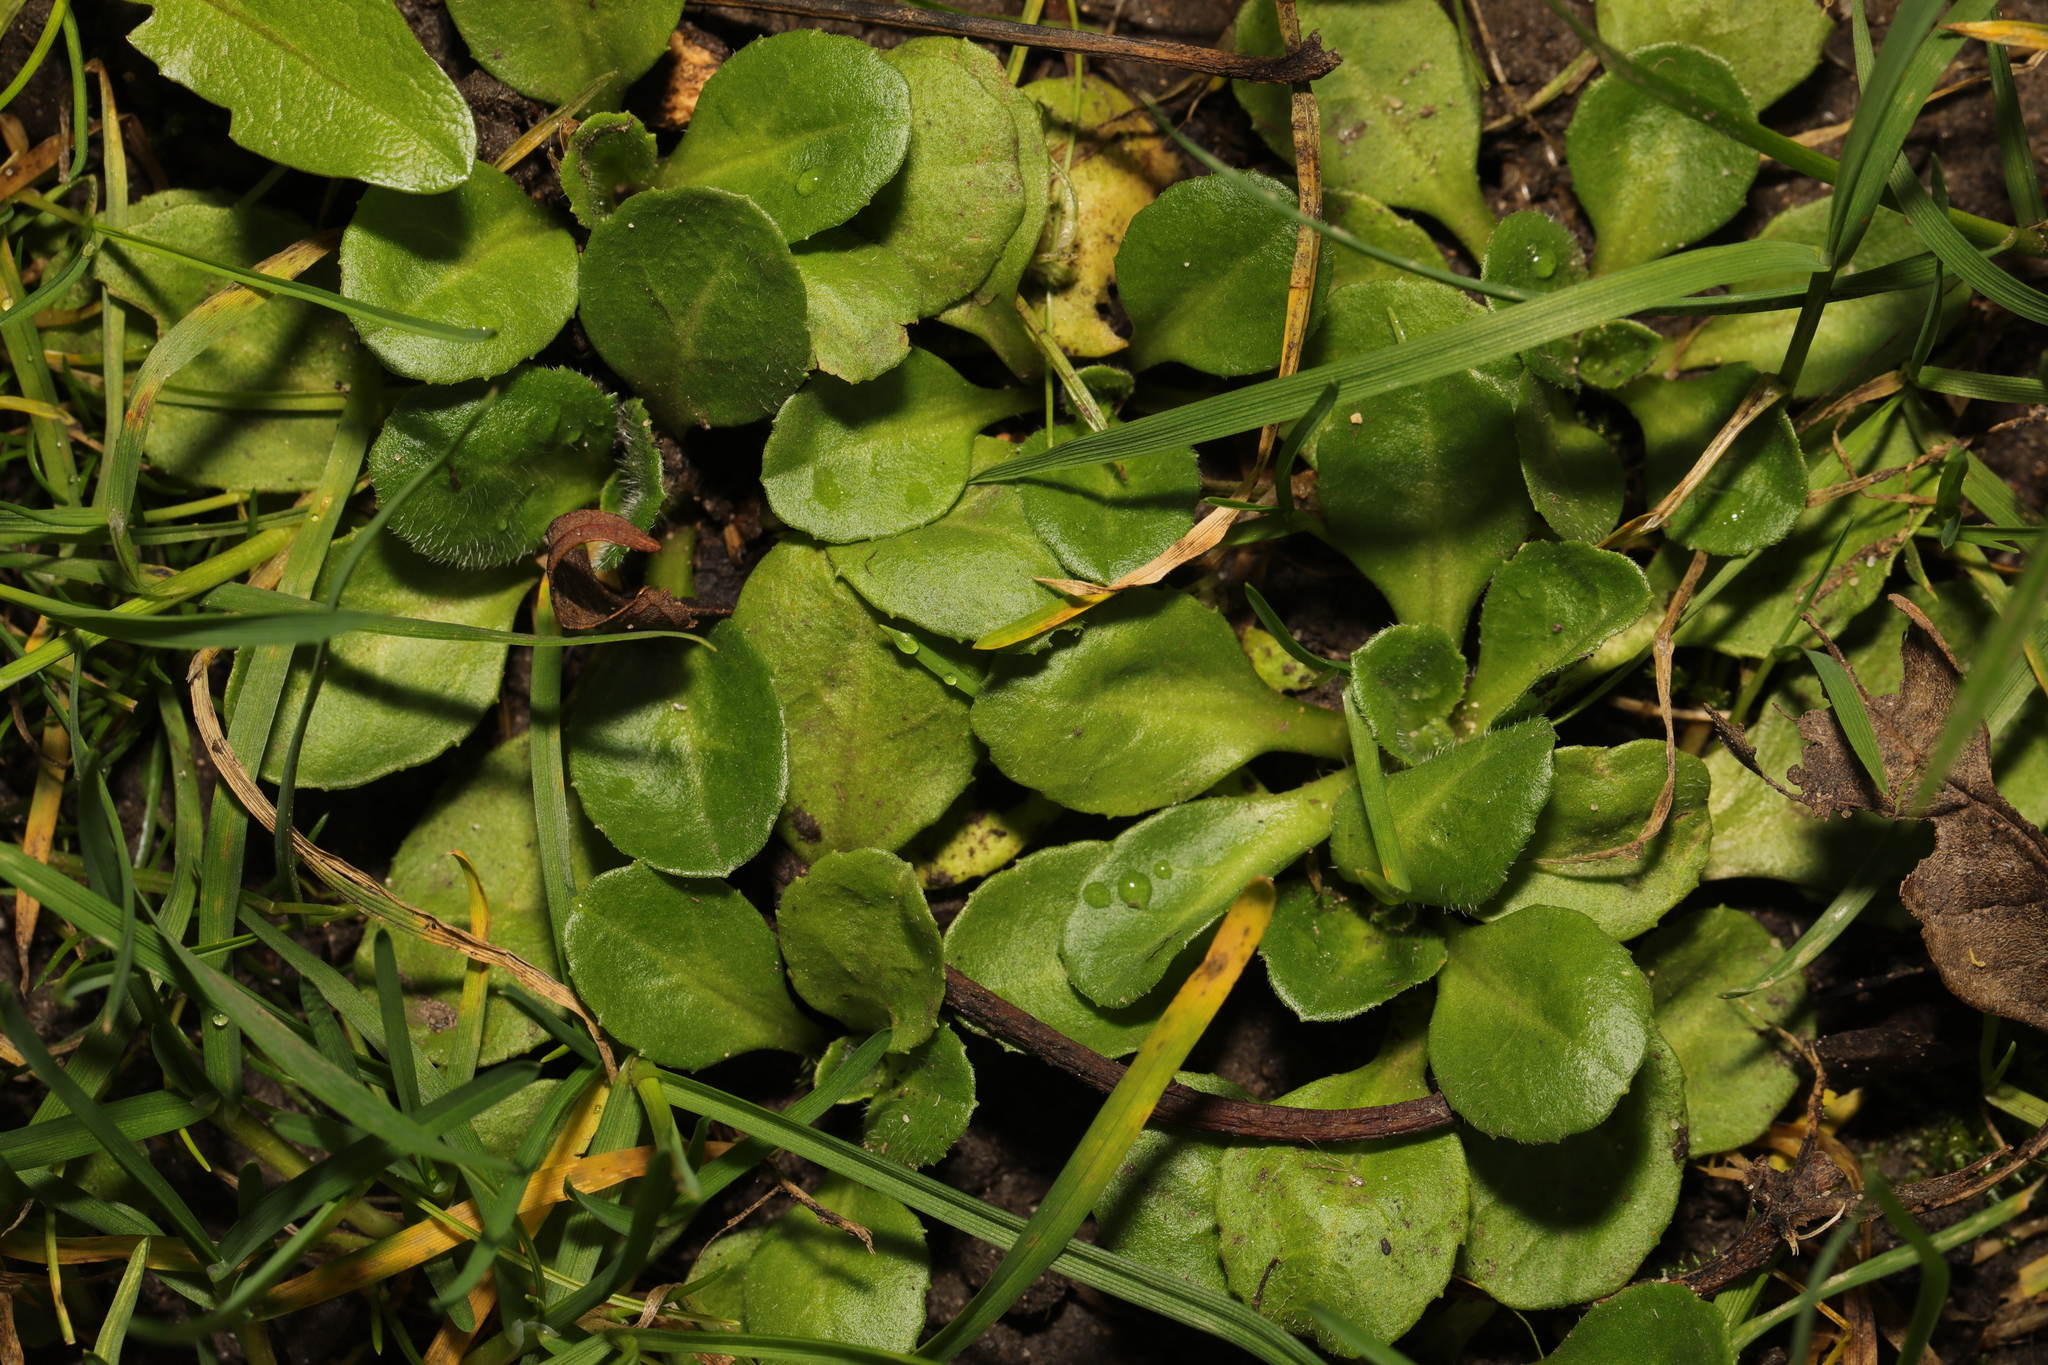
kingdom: Plantae
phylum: Tracheophyta
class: Magnoliopsida
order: Asterales
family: Asteraceae
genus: Bellis
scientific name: Bellis perennis
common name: Lawndaisy
